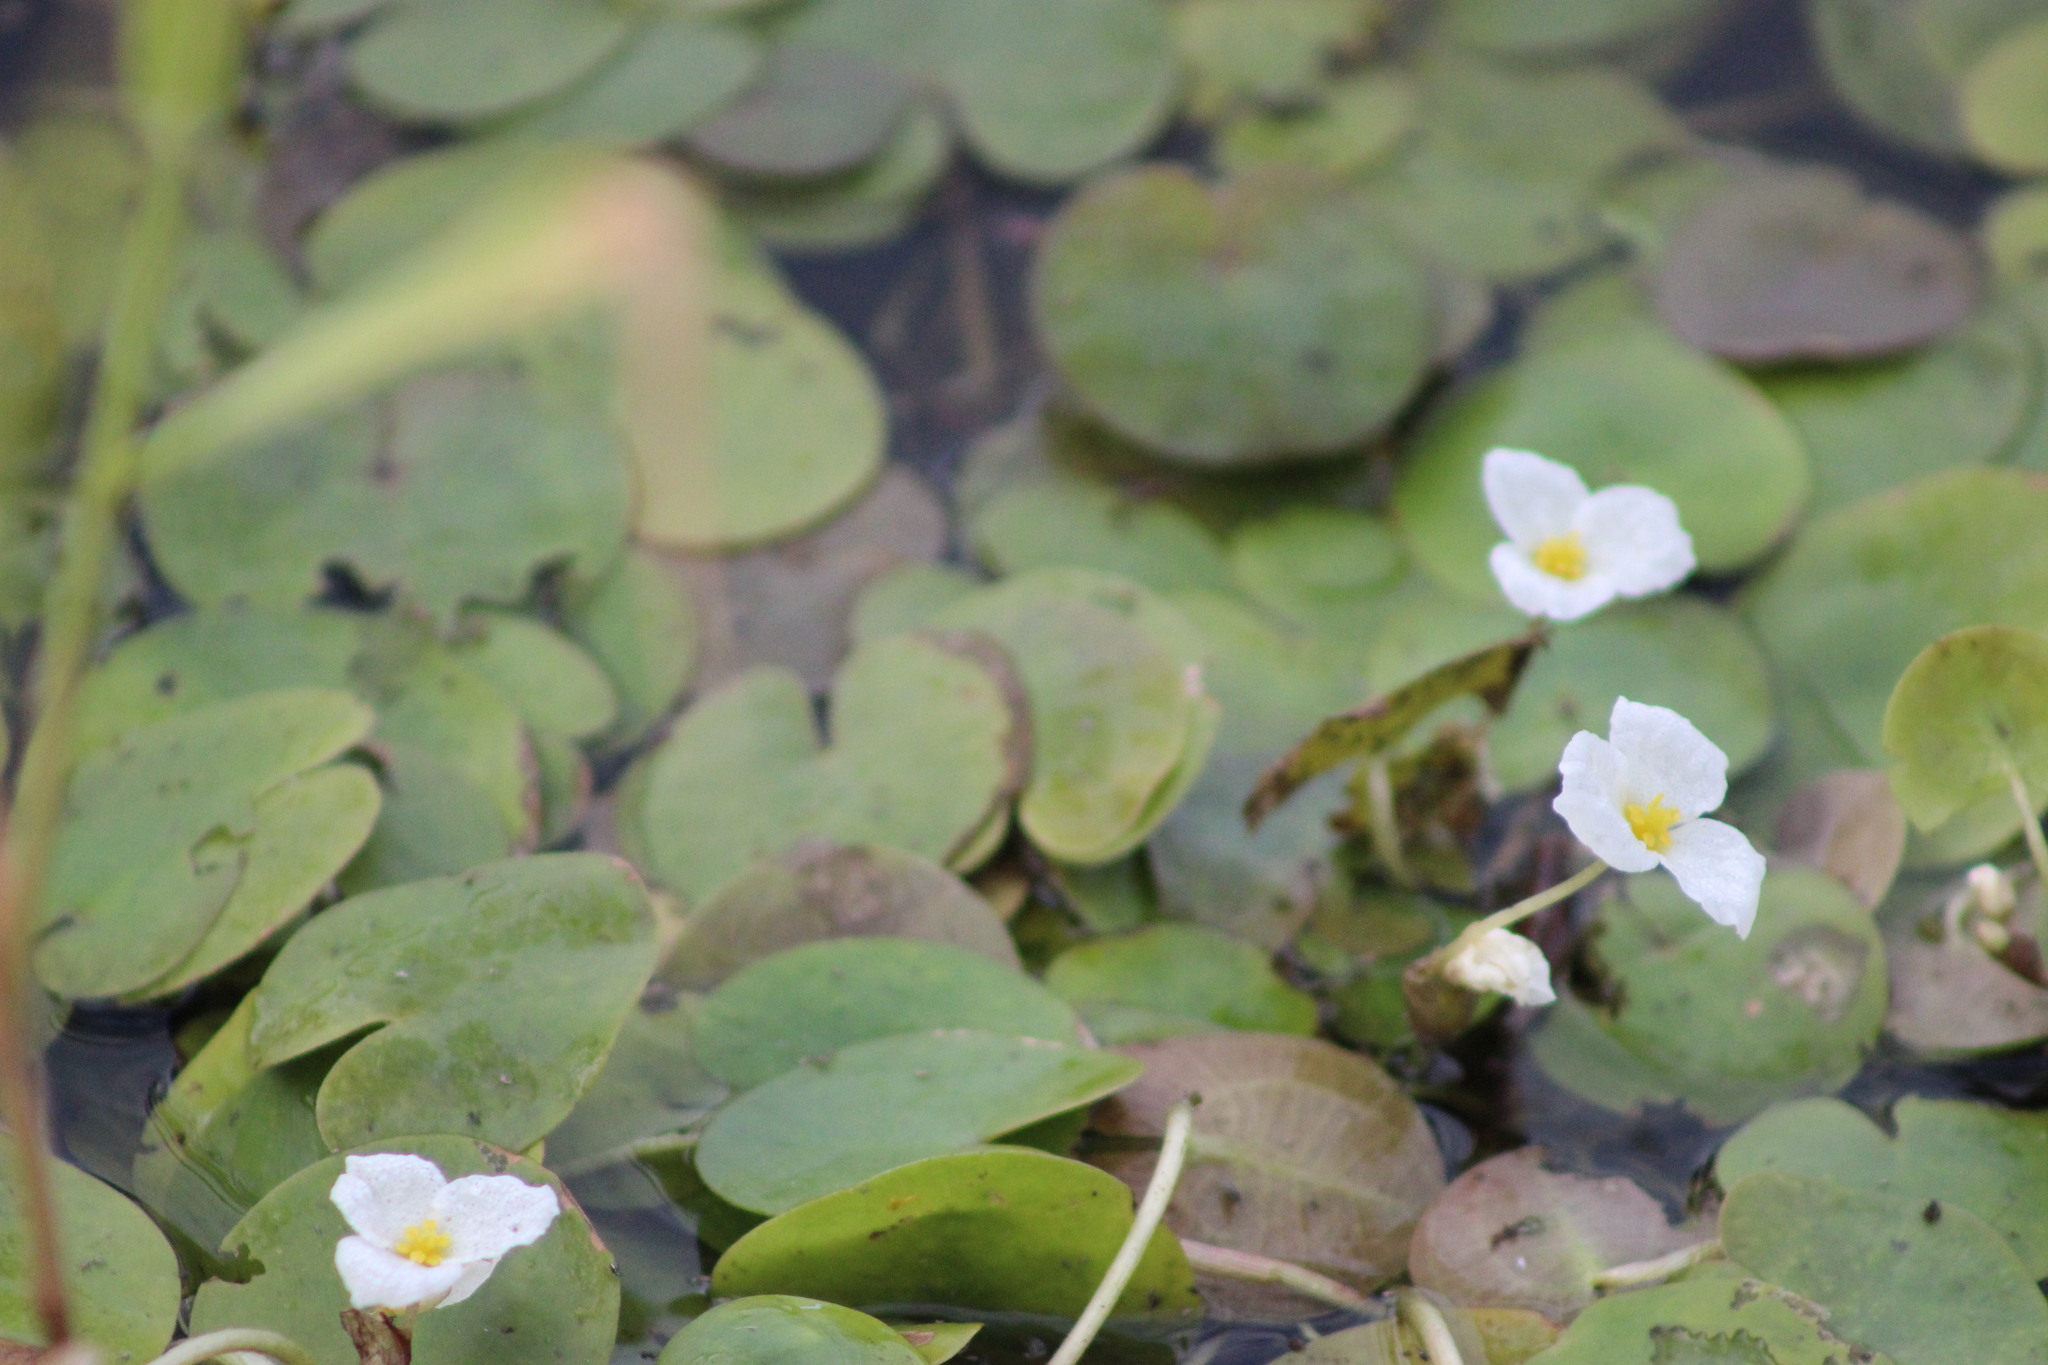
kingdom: Plantae
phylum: Tracheophyta
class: Liliopsida
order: Alismatales
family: Hydrocharitaceae
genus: Hydrocharis
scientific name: Hydrocharis morsus-ranae
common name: Frogbit
